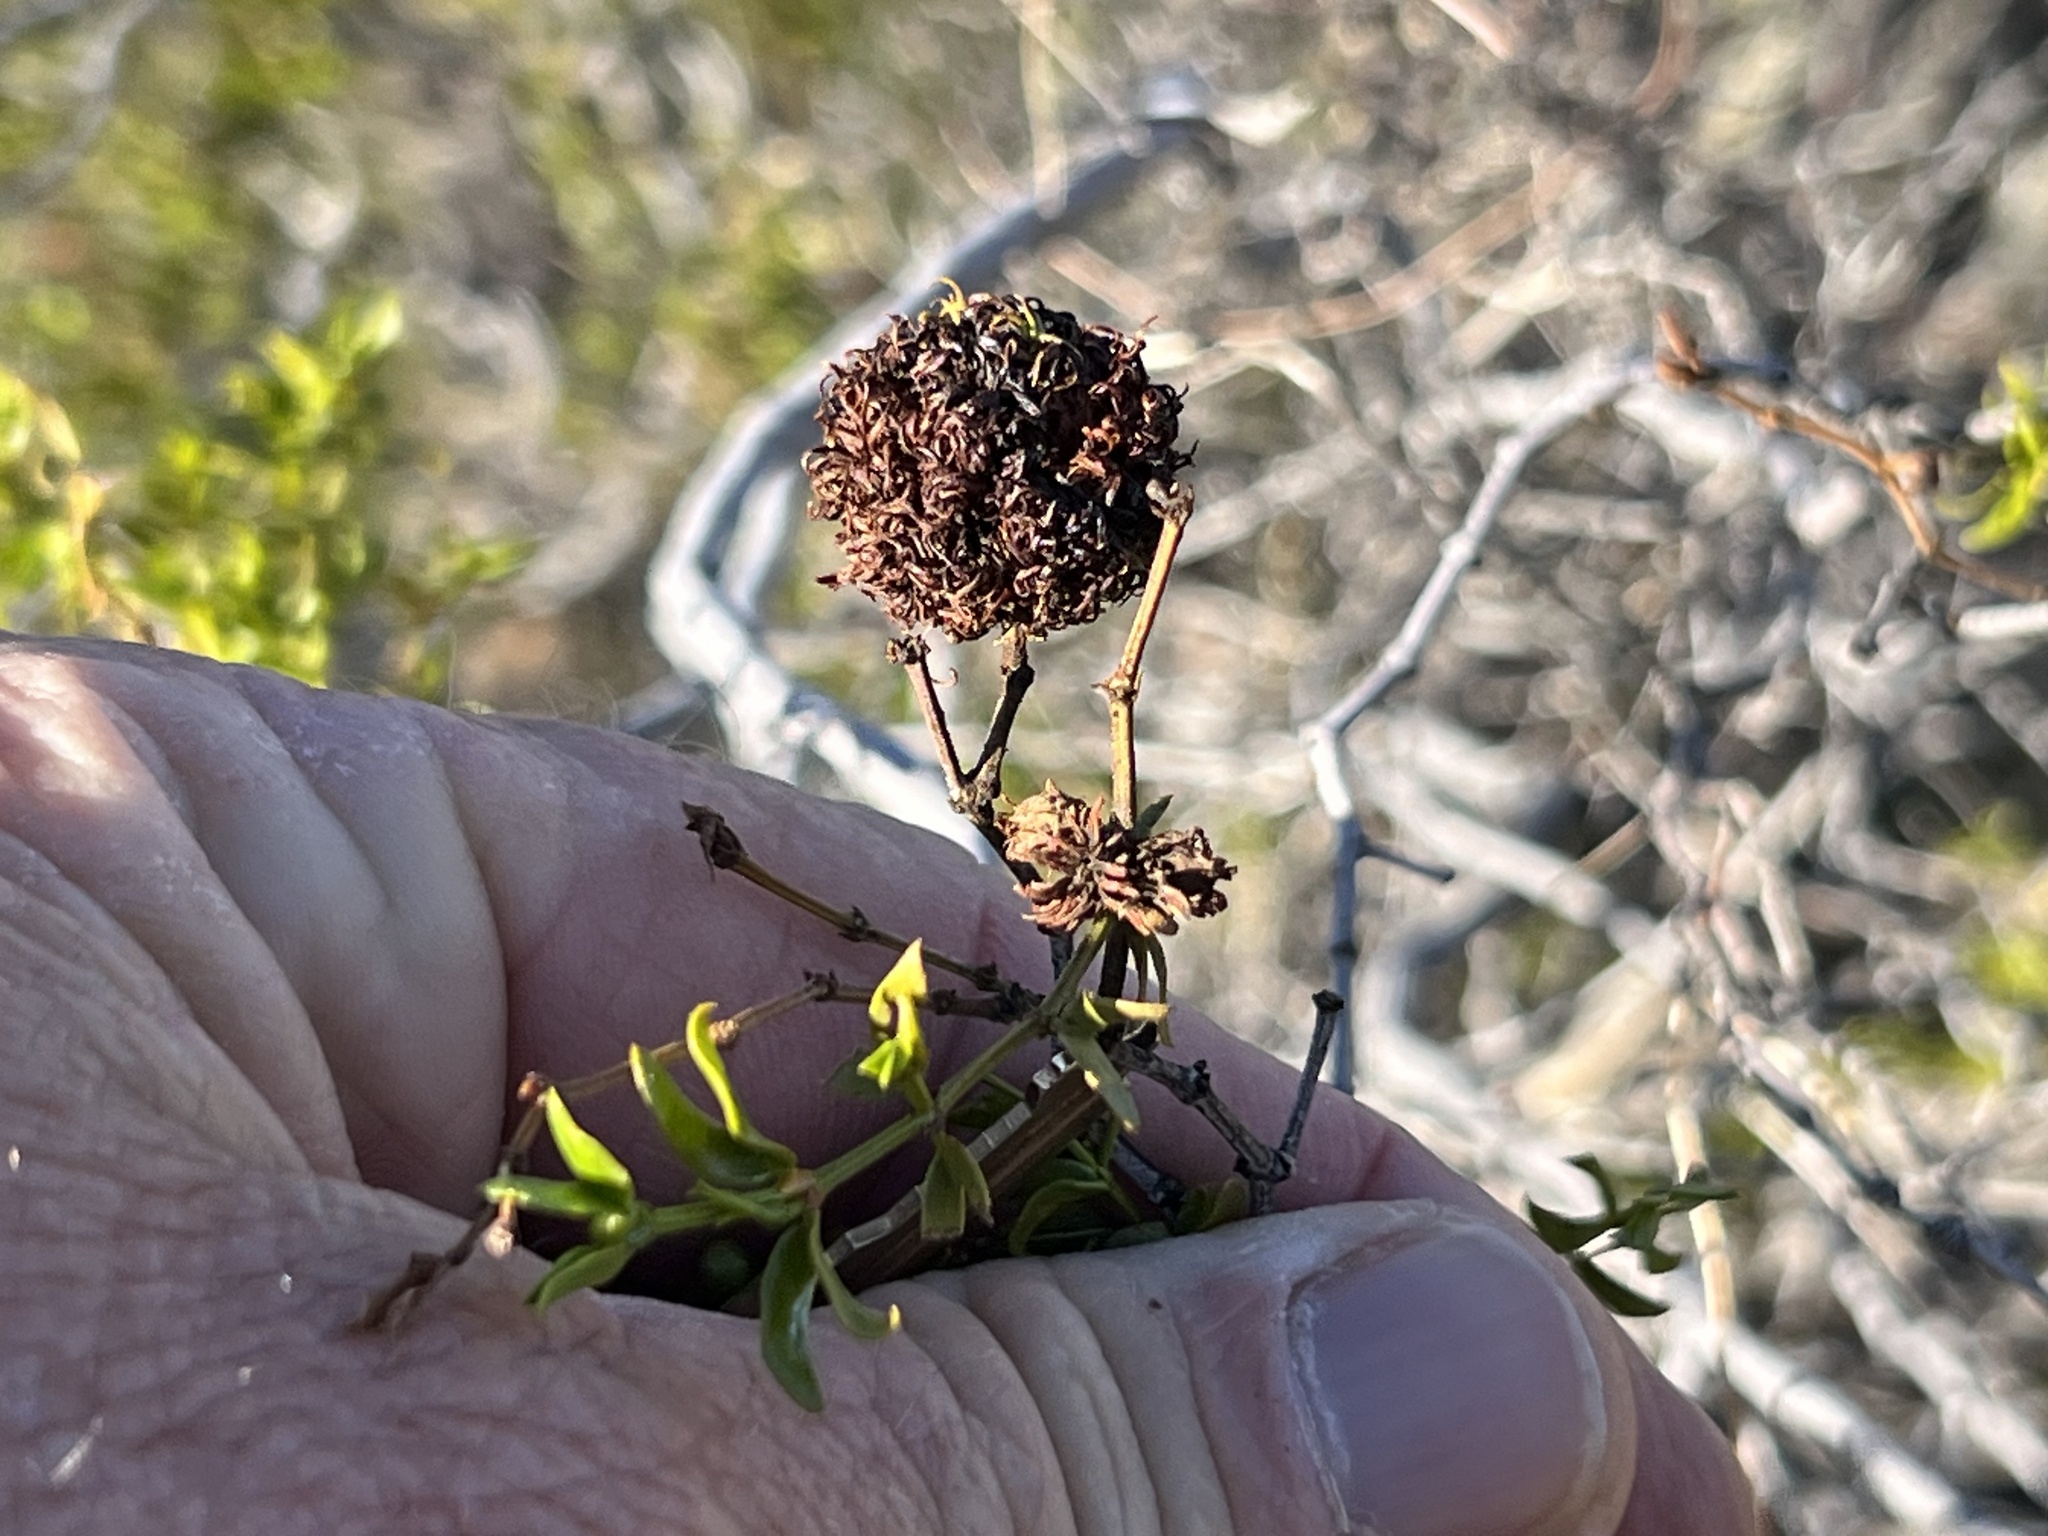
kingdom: Animalia
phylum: Arthropoda
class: Insecta
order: Diptera
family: Cecidomyiidae
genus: Asphondylia
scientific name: Asphondylia auripila
